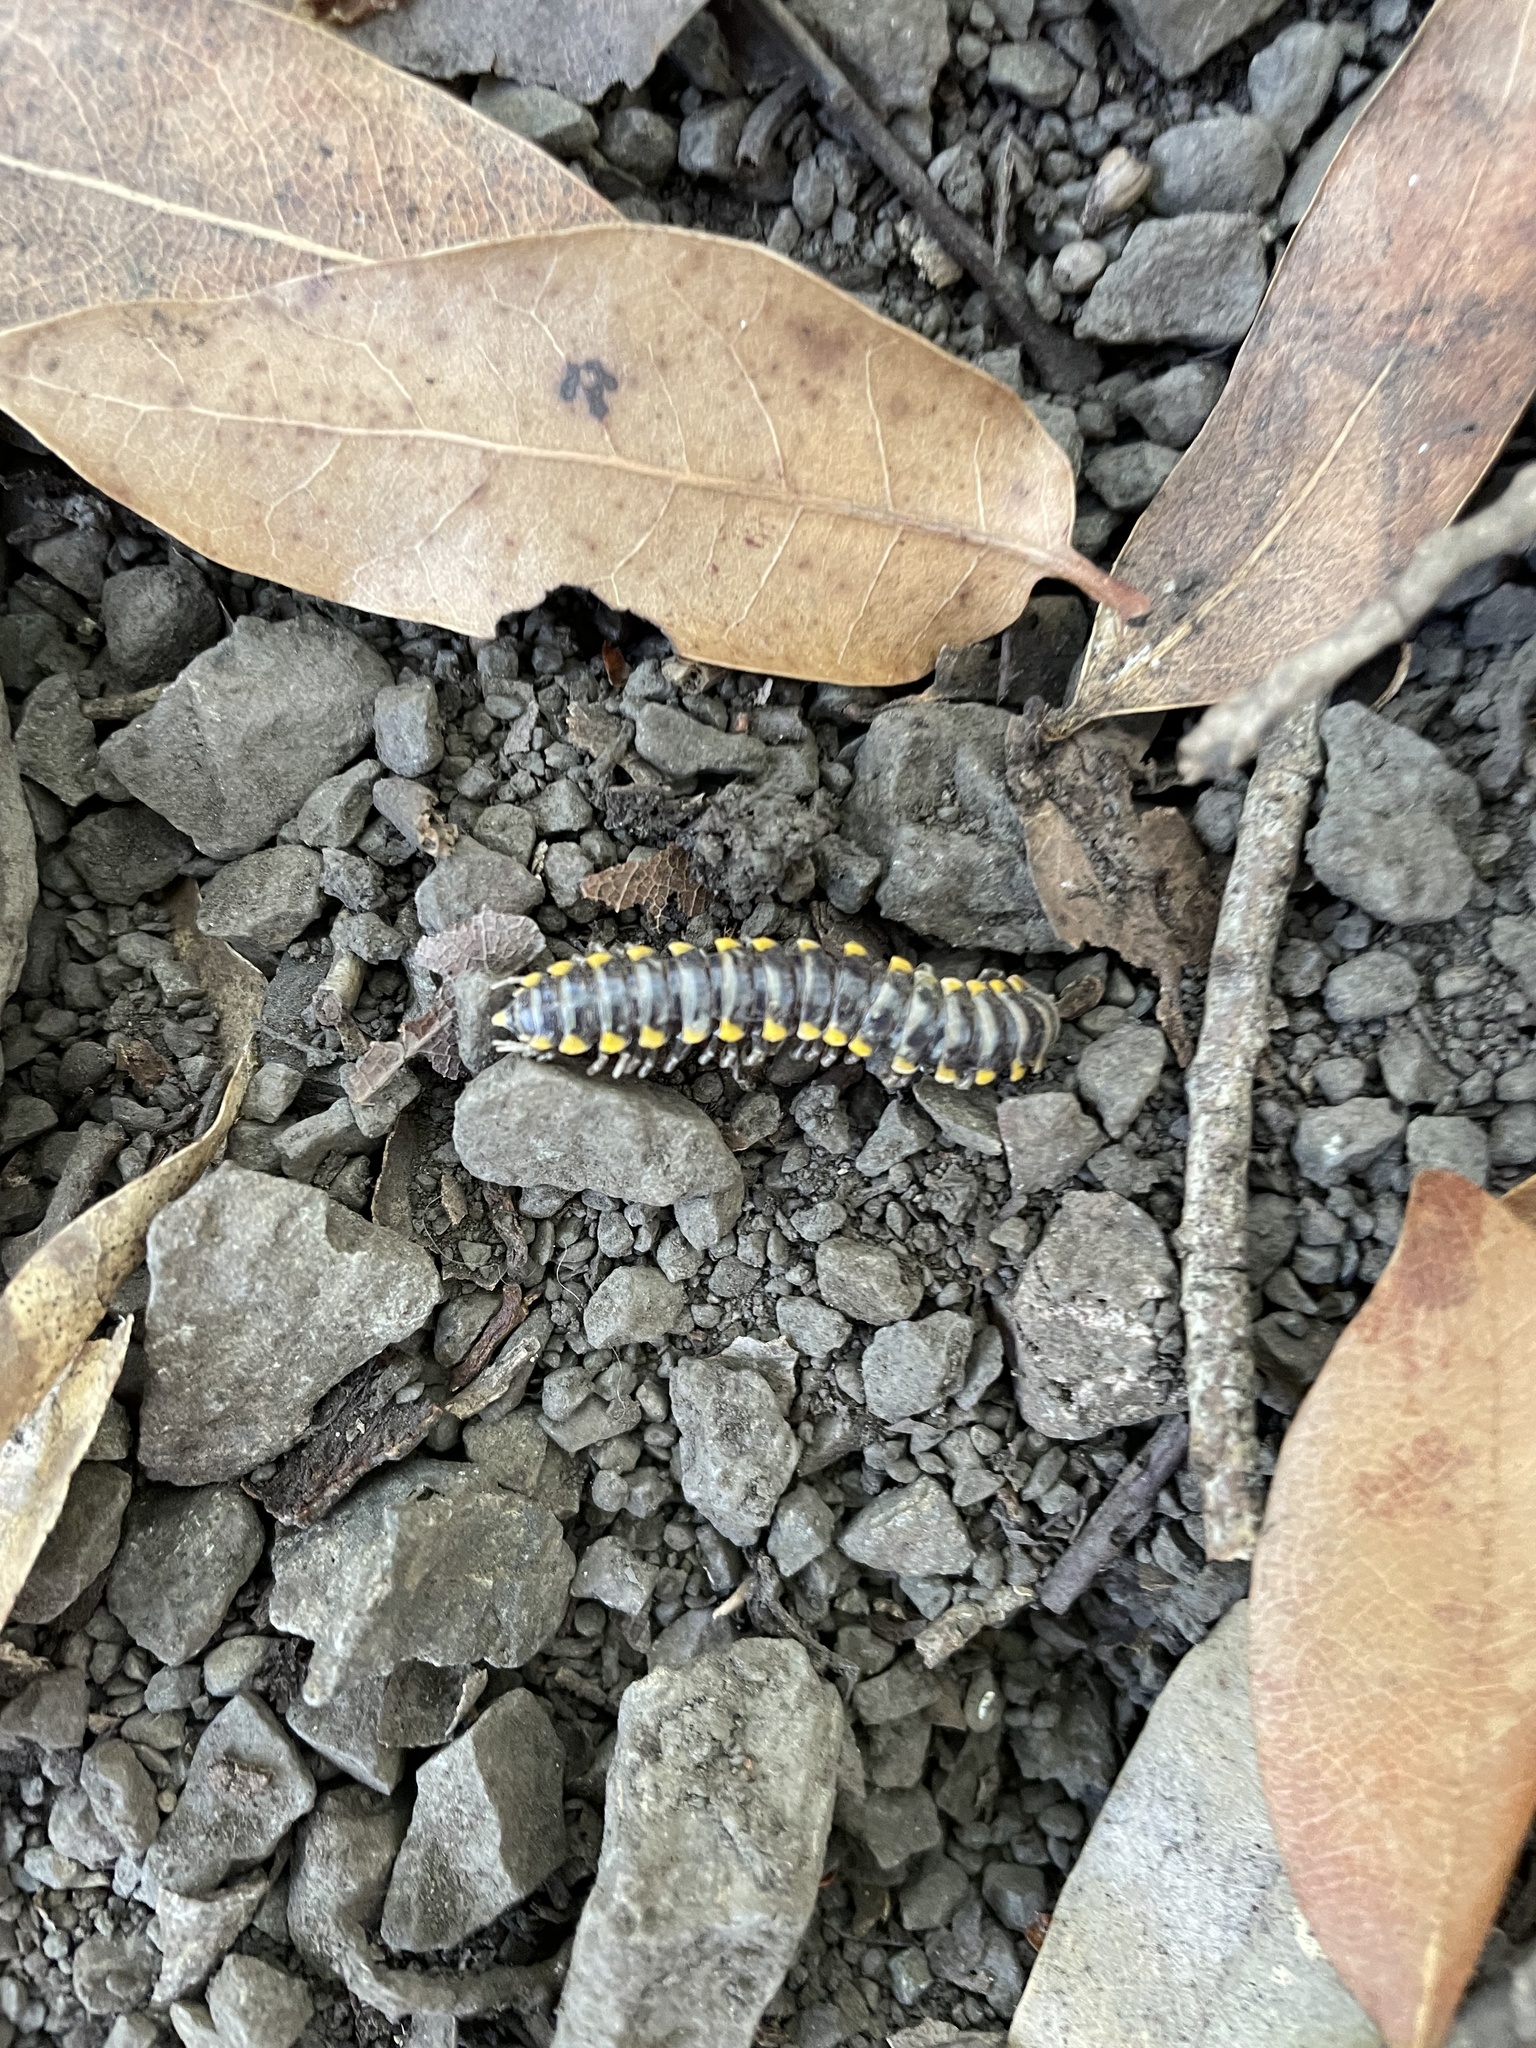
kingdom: Animalia
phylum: Arthropoda
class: Diplopoda
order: Polydesmida
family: Xystodesmidae
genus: Harpaphe
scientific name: Harpaphe haydeniana
